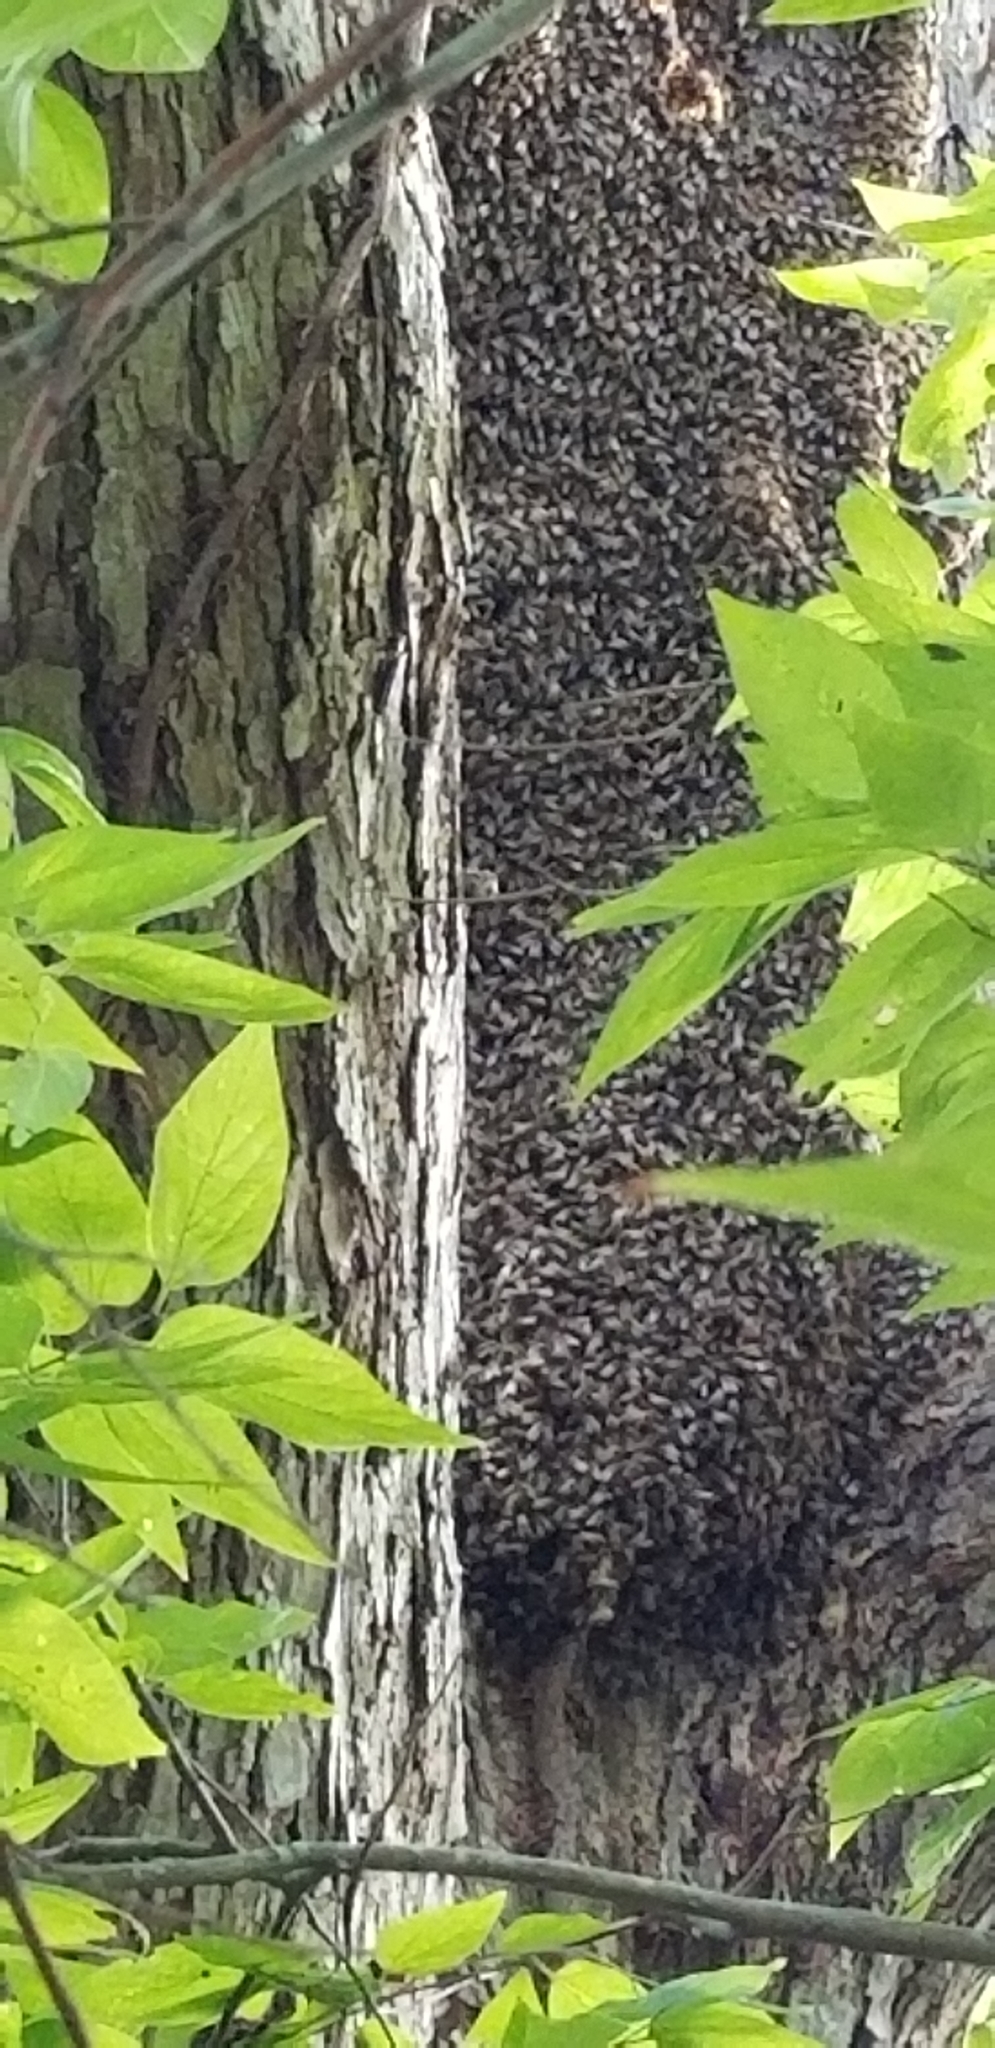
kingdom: Animalia
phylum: Arthropoda
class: Insecta
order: Hymenoptera
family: Apidae
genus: Apis
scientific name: Apis mellifera
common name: Honey bee
